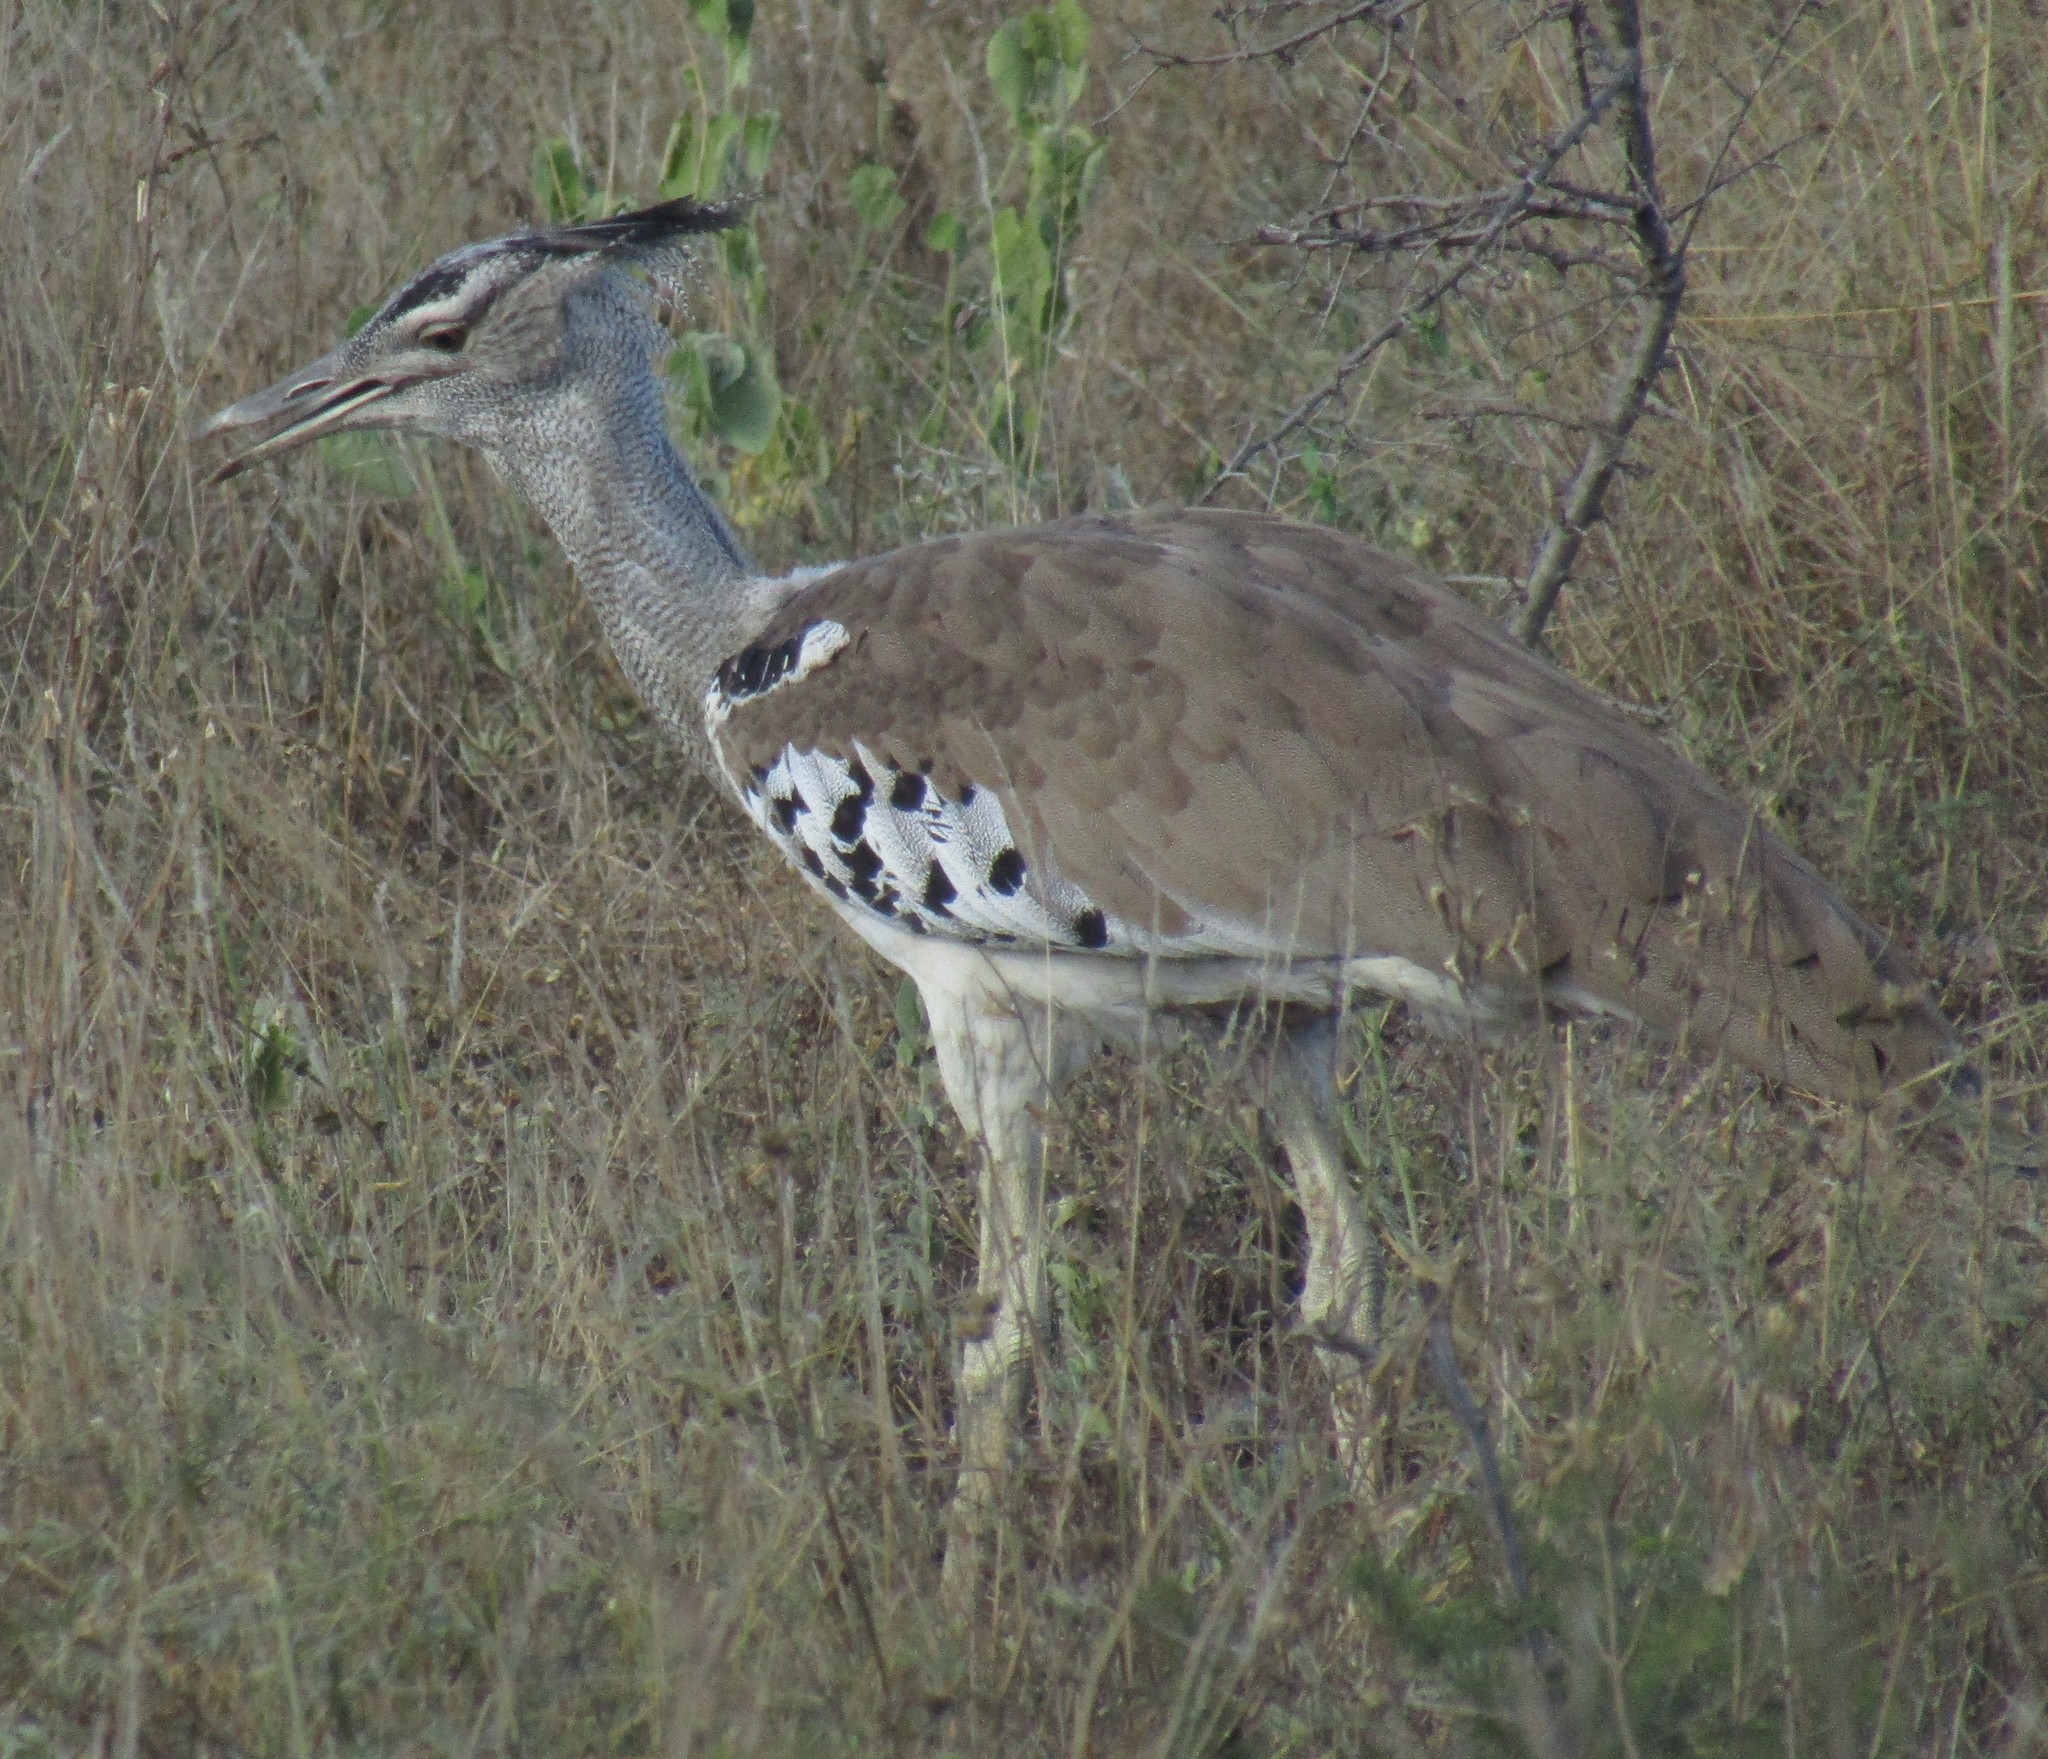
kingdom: Animalia
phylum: Chordata
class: Aves
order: Otidiformes
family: Otididae
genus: Ardeotis
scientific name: Ardeotis kori
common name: Kori bustard
